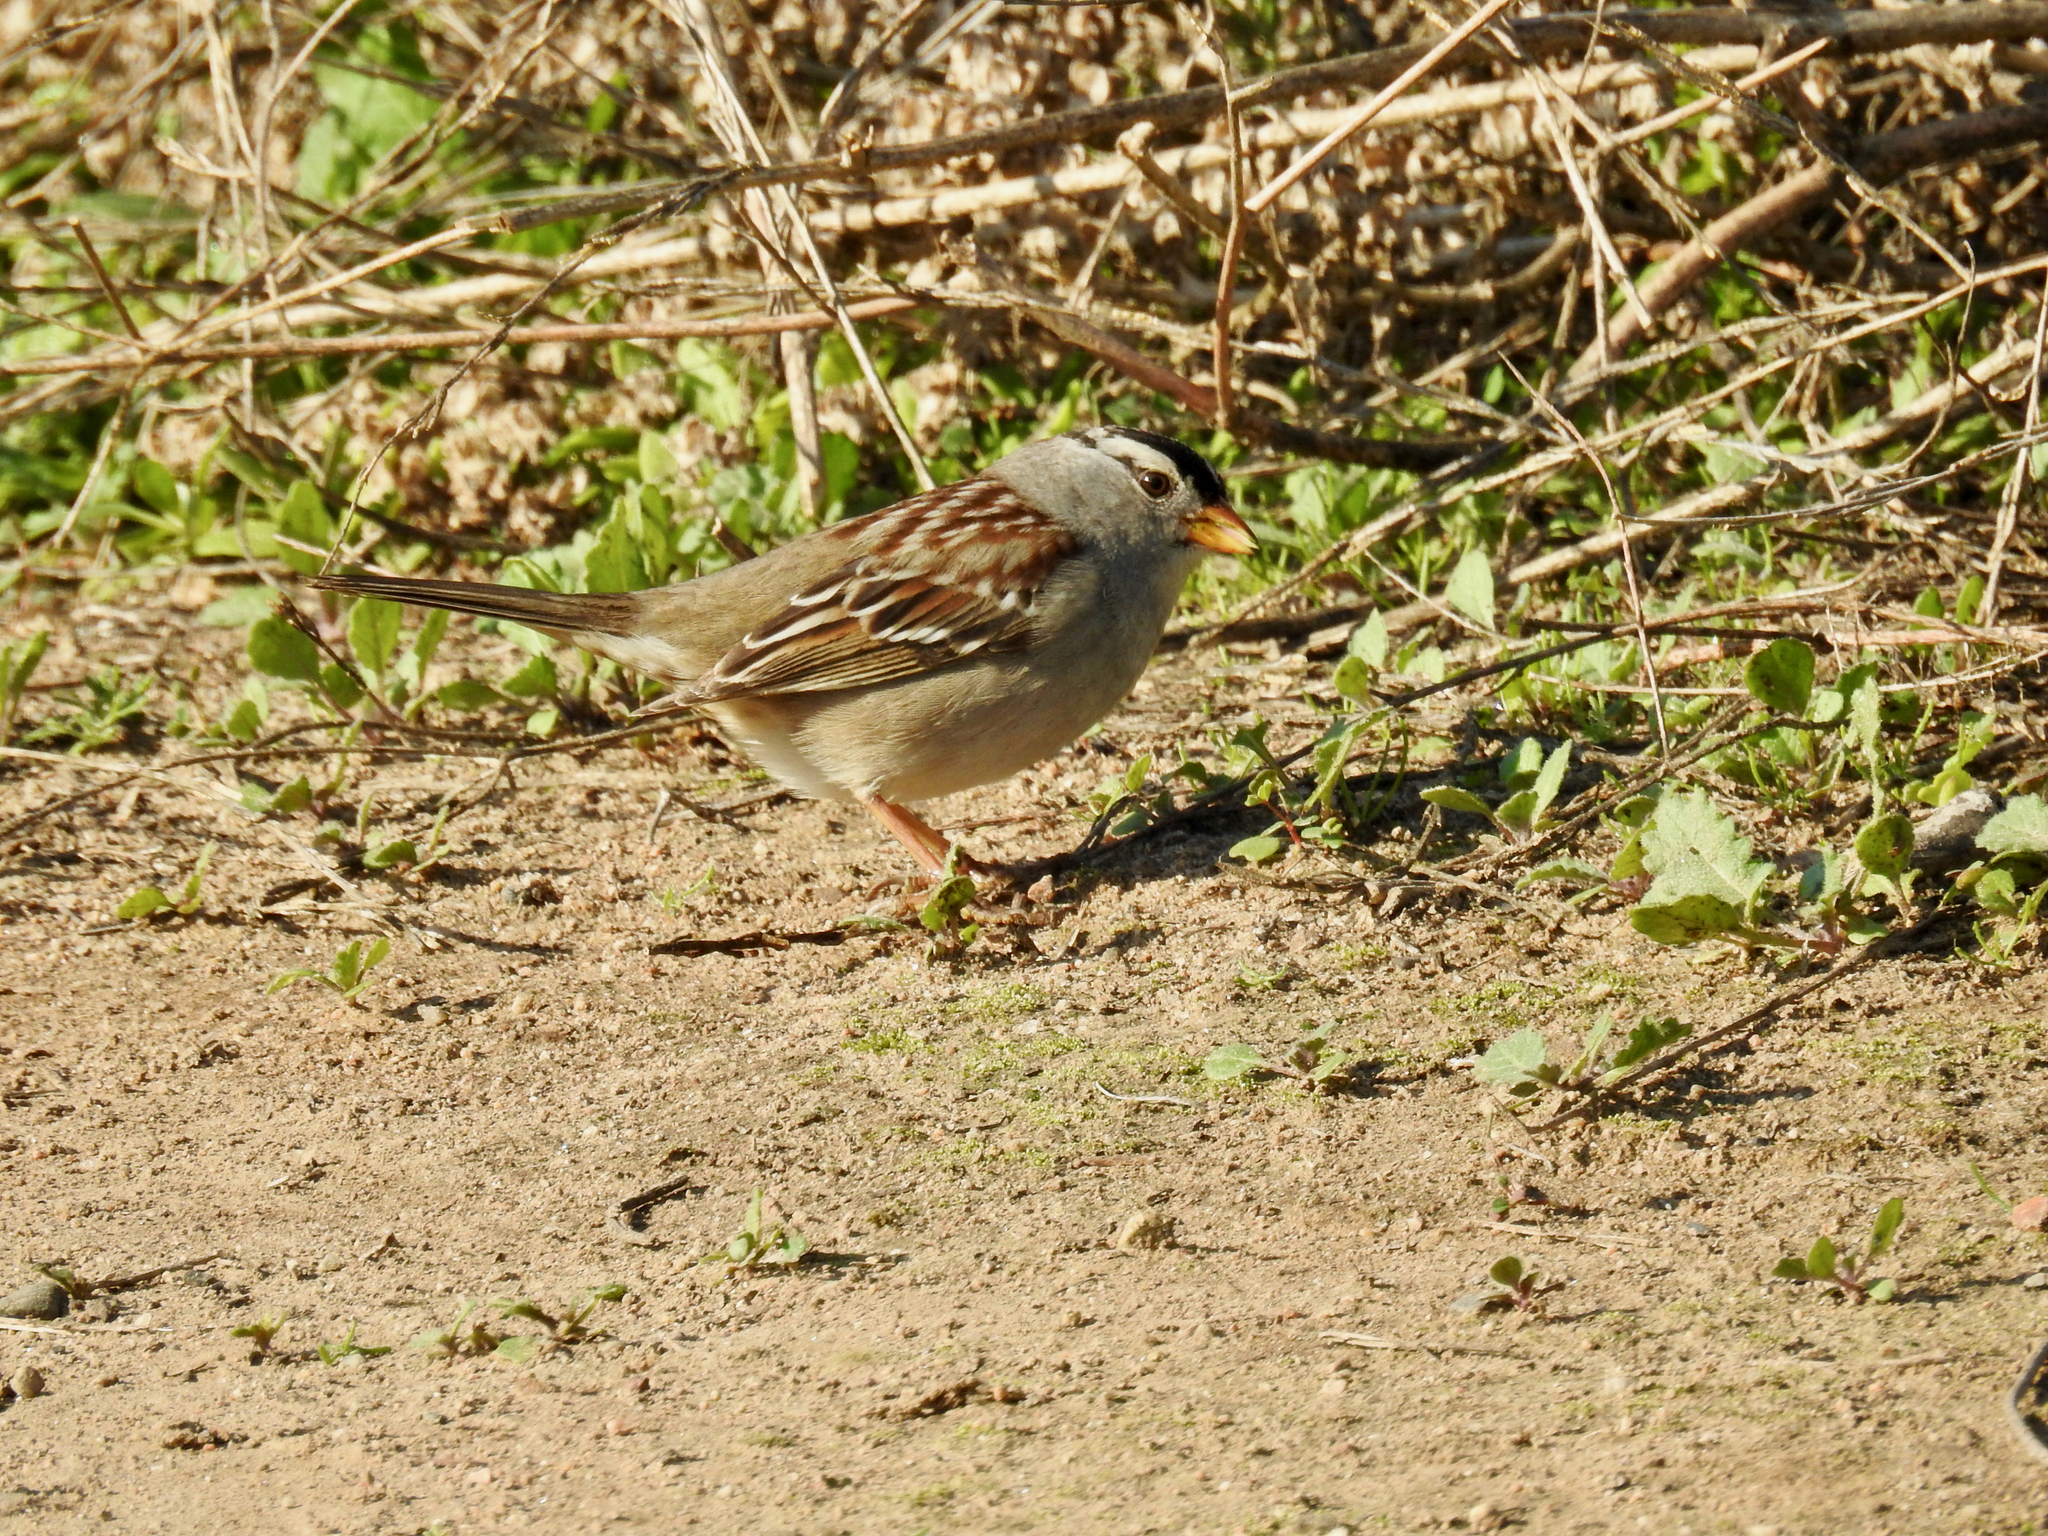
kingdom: Animalia
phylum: Chordata
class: Aves
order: Passeriformes
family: Passerellidae
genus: Zonotrichia
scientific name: Zonotrichia leucophrys
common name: White-crowned sparrow
